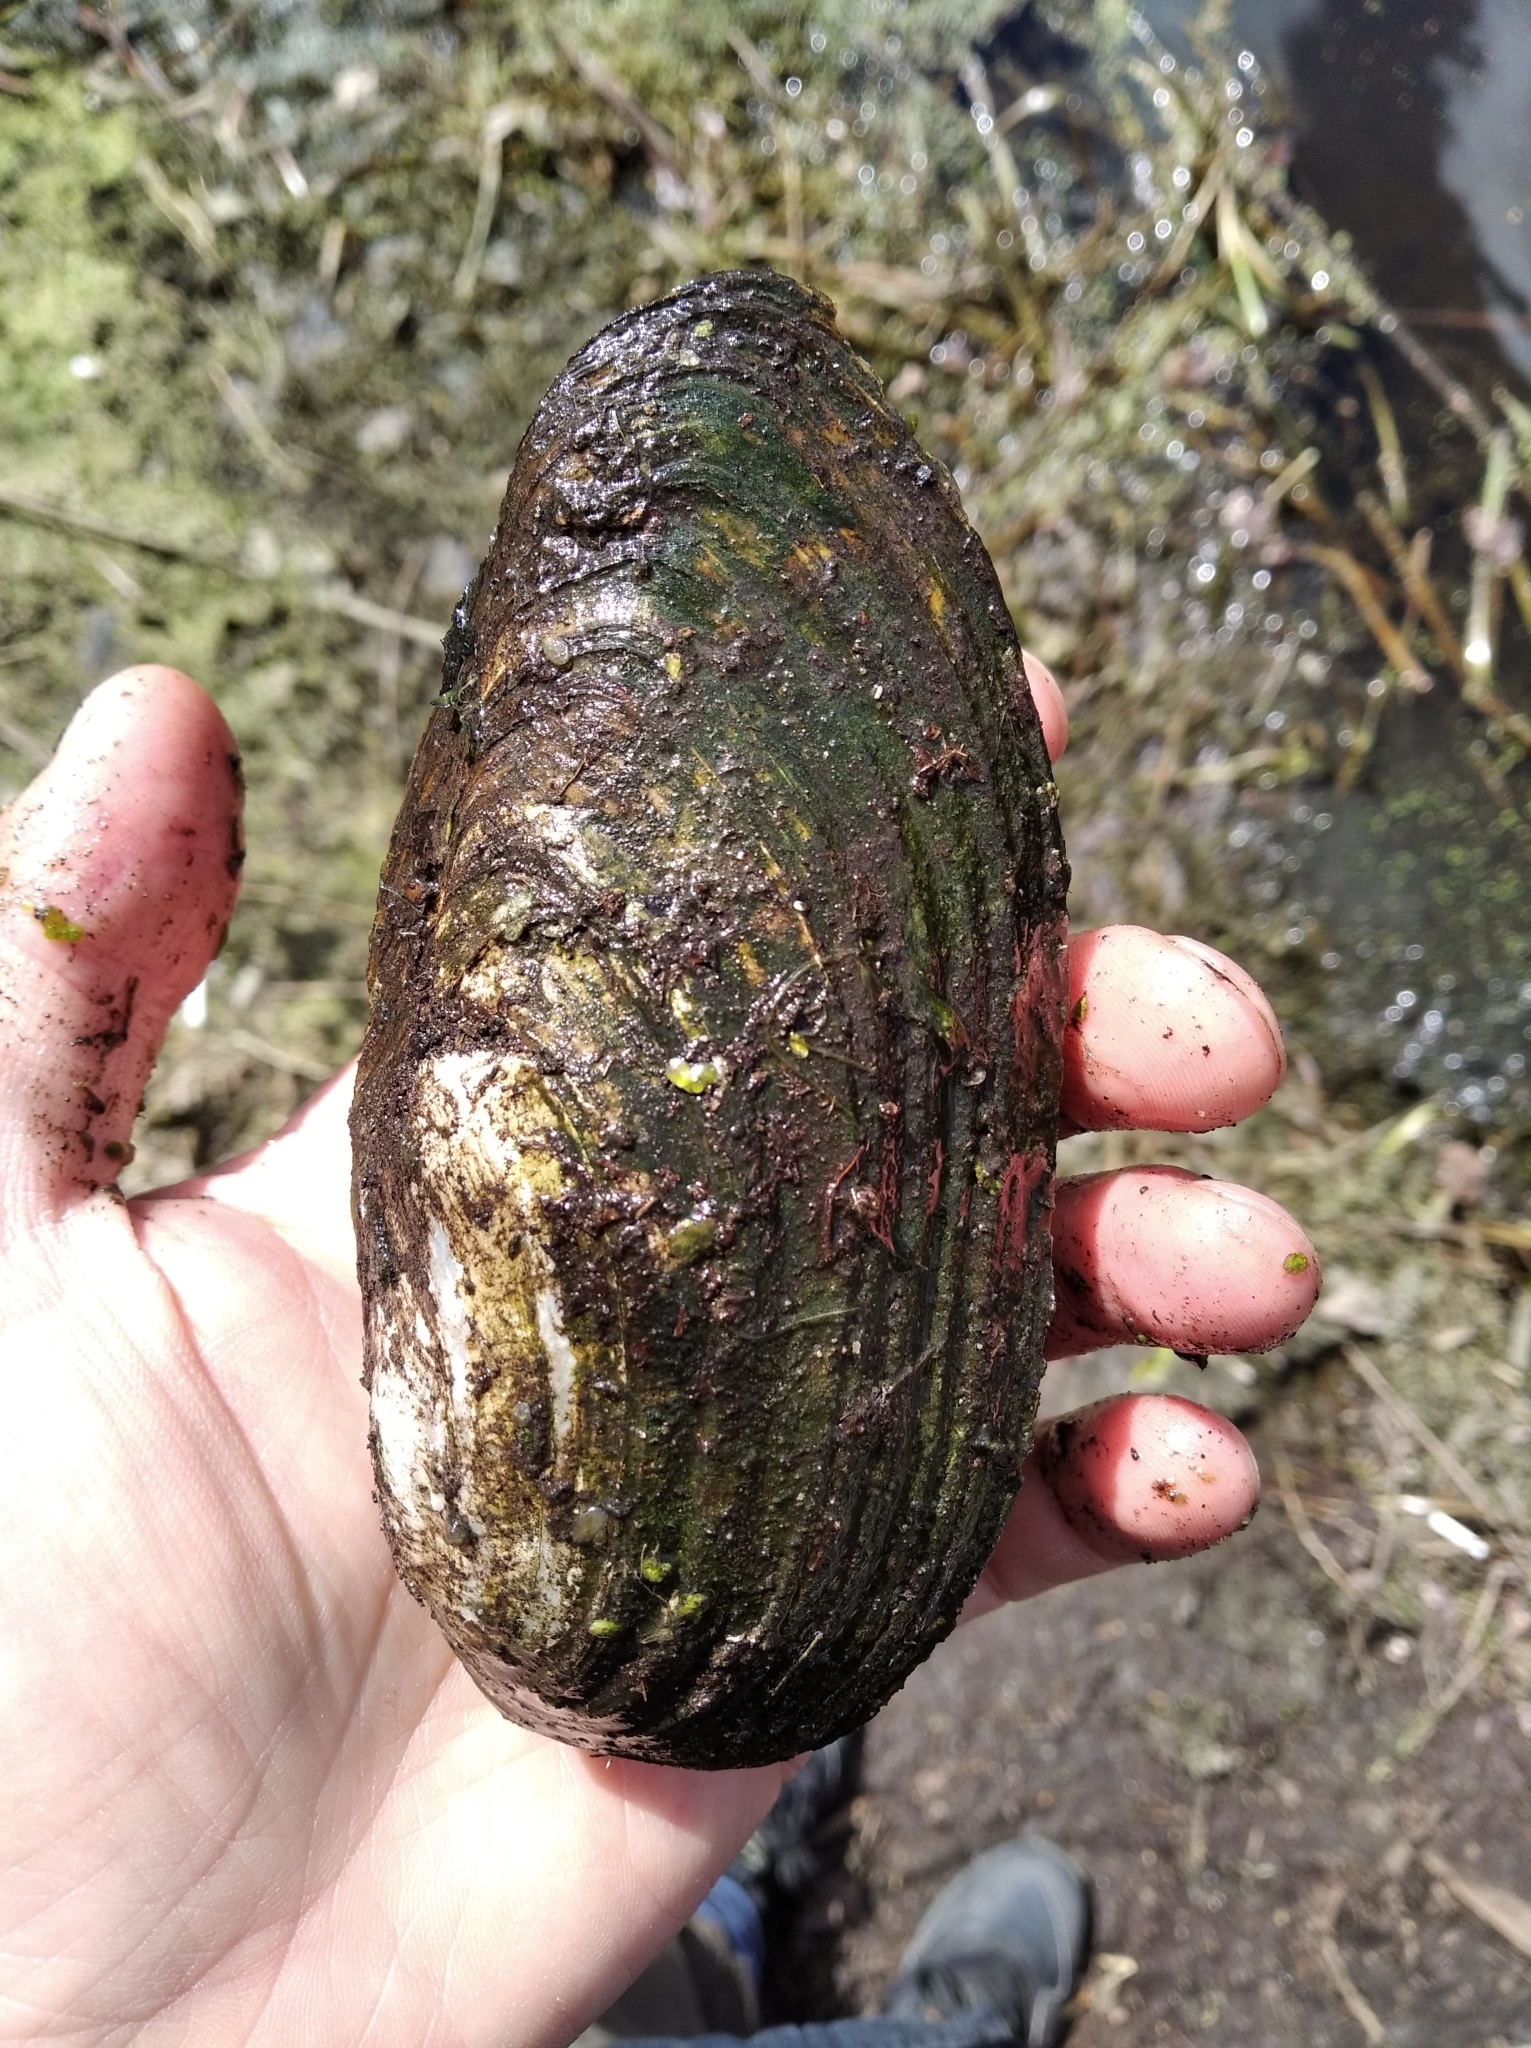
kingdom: Animalia
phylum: Mollusca
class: Bivalvia
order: Unionida
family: Unionidae
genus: Anodonta
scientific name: Anodonta anatina
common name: Duck mussel
